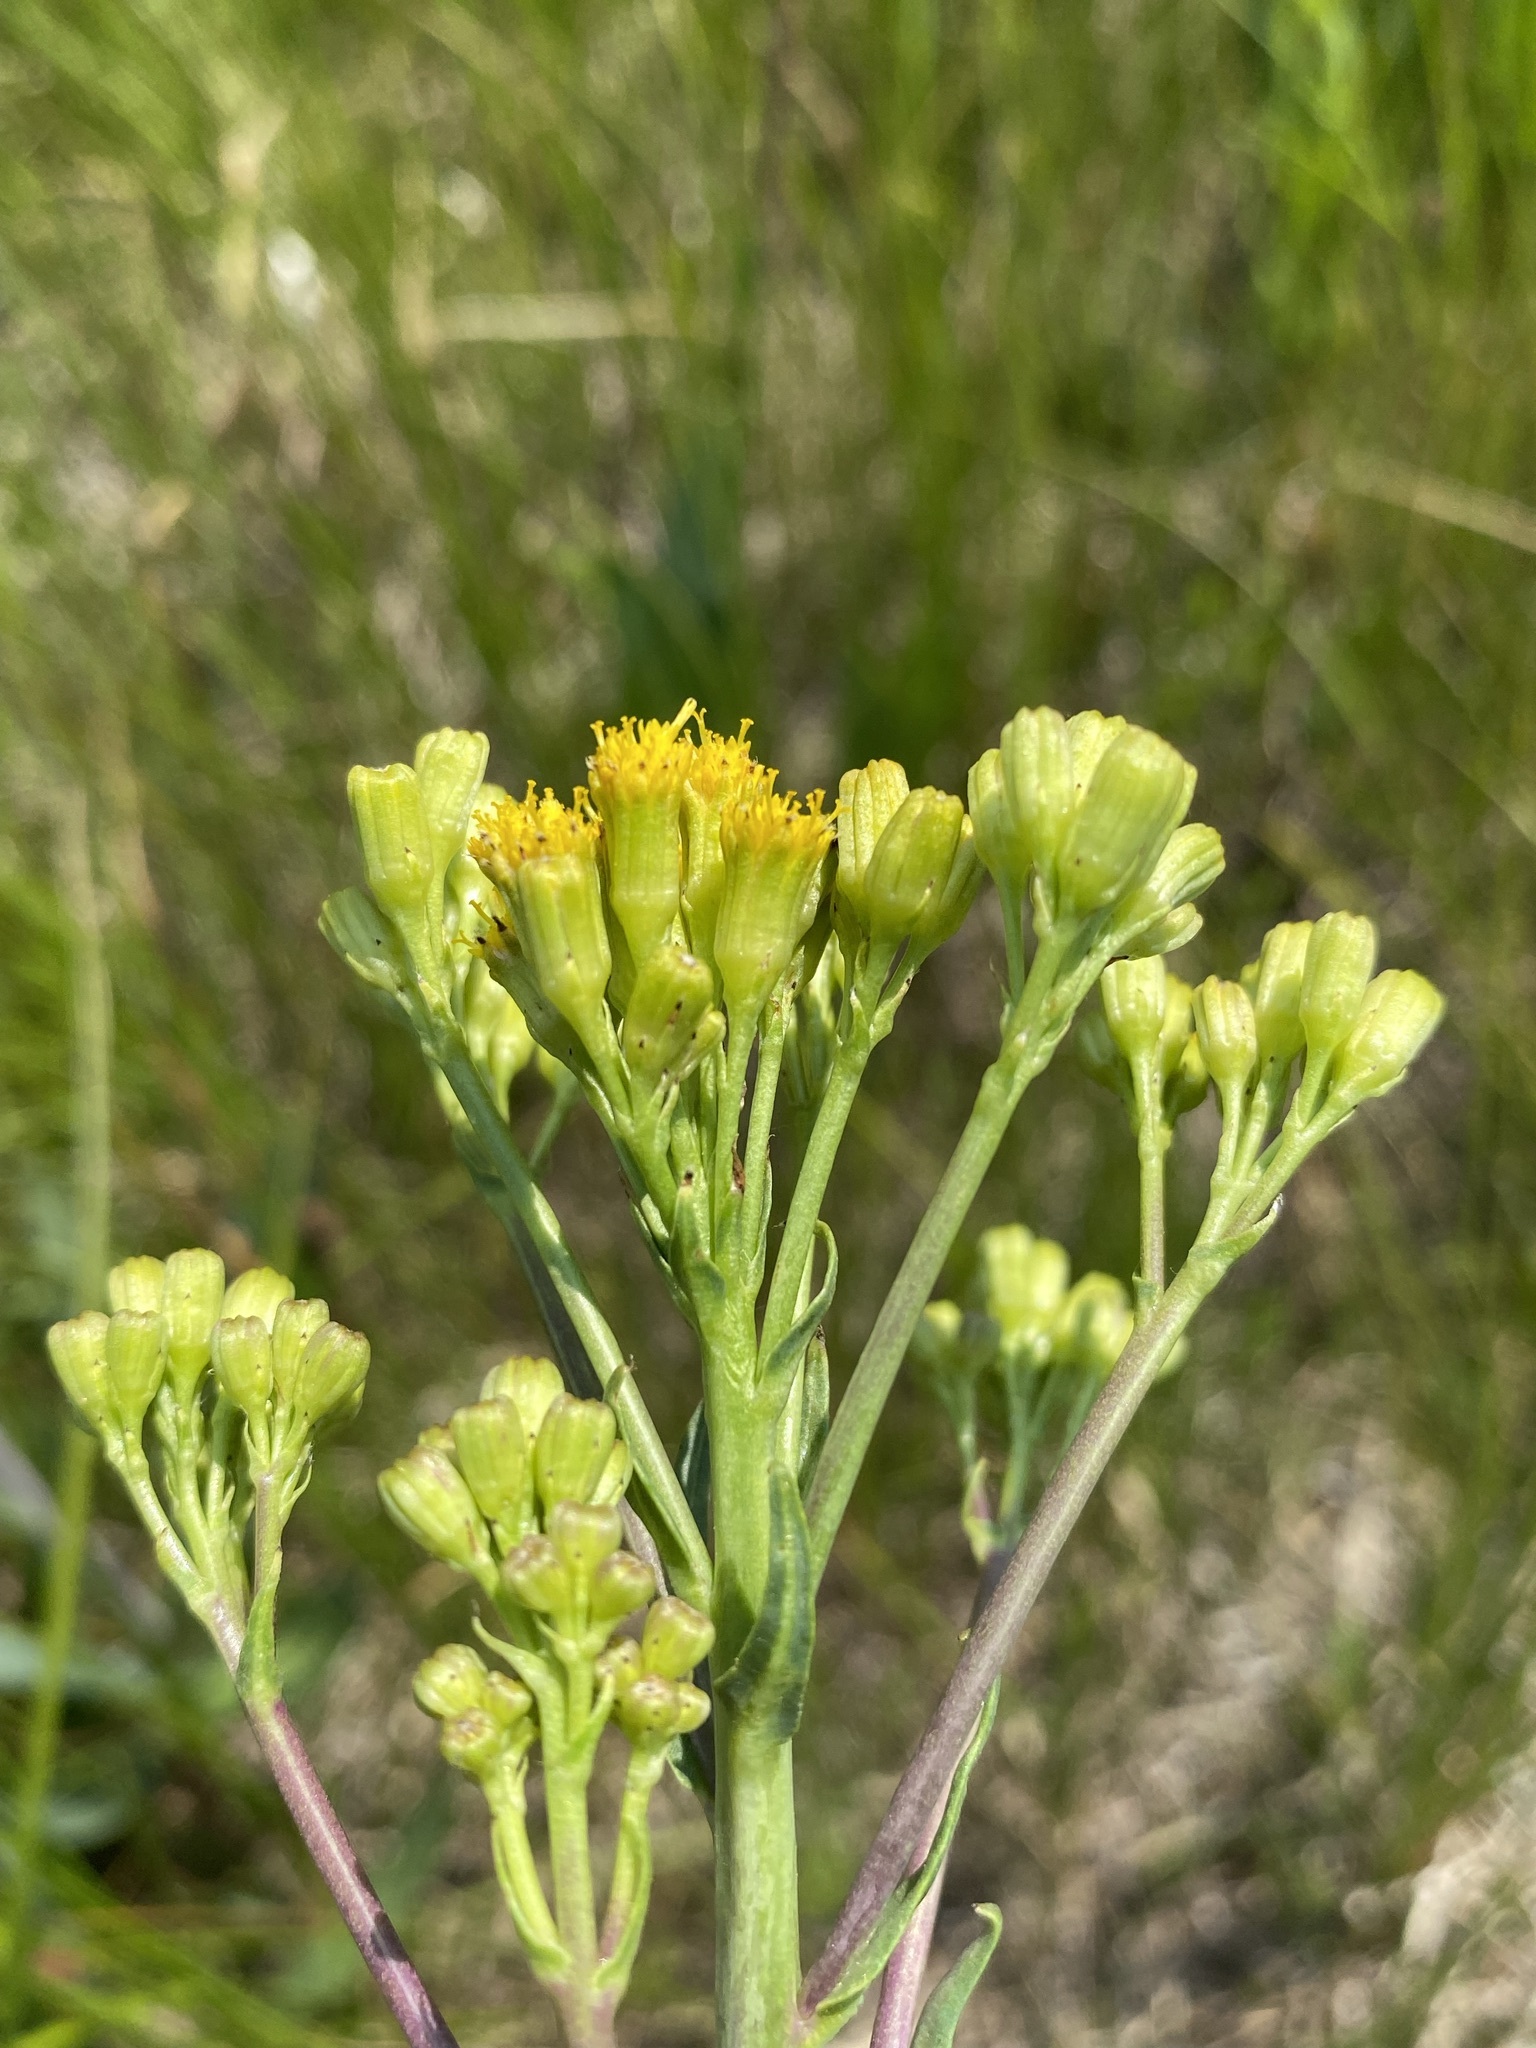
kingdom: Plantae
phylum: Tracheophyta
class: Magnoliopsida
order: Asterales
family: Asteraceae
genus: Senecio
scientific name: Senecio hydrophilus
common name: Water ragwort
